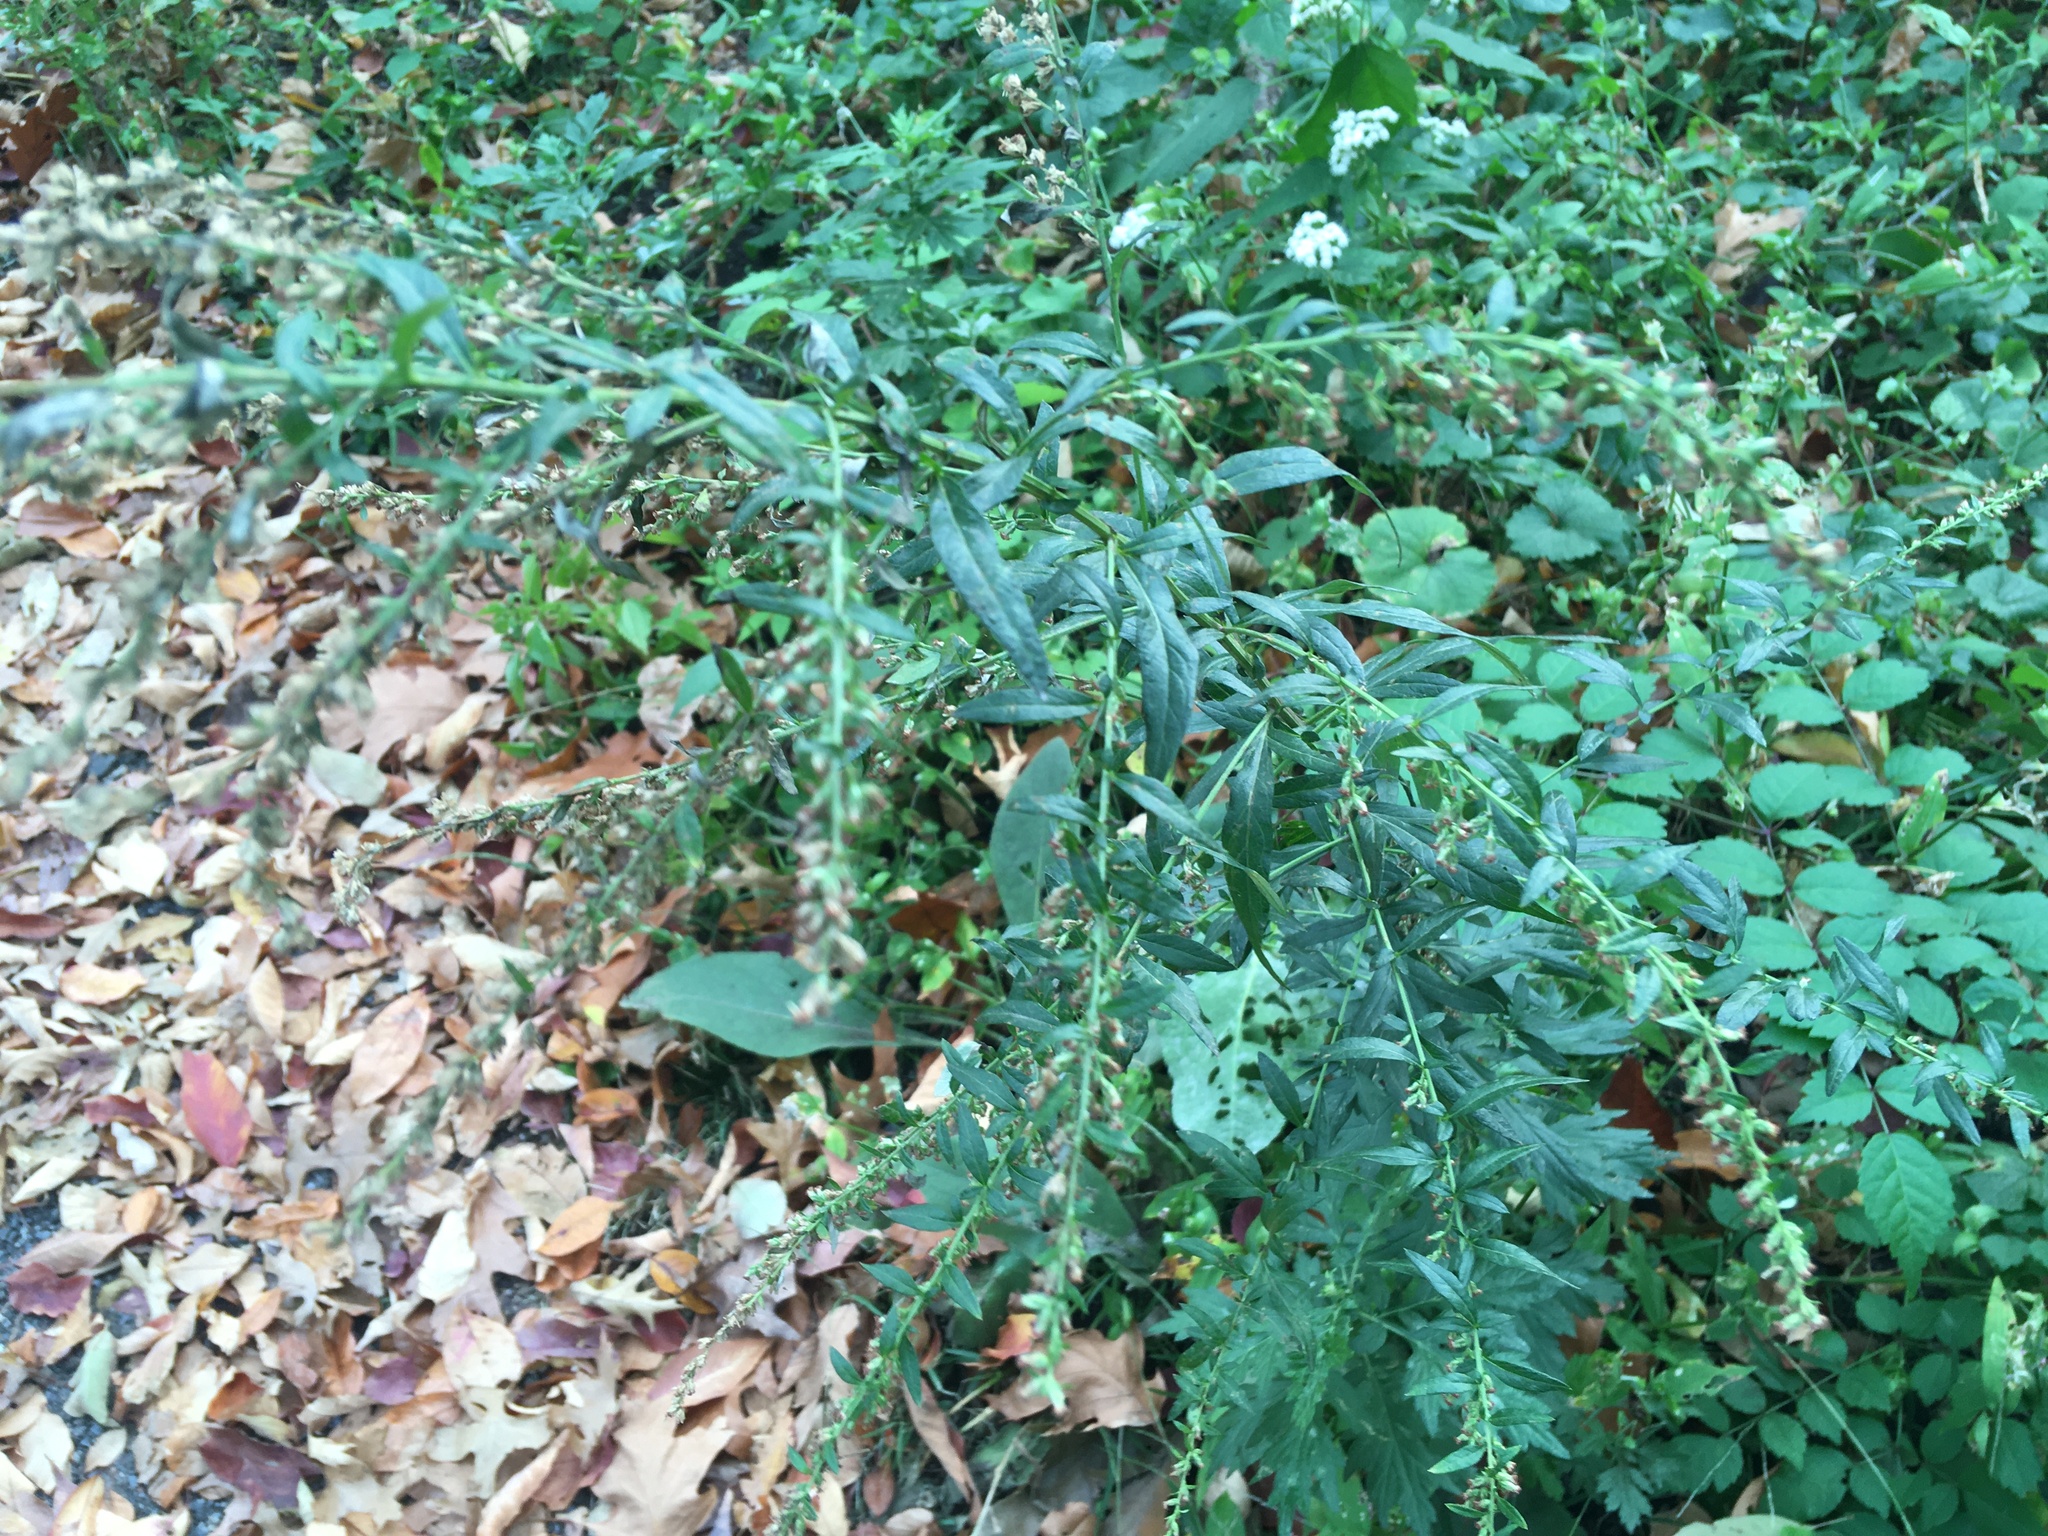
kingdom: Plantae
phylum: Tracheophyta
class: Magnoliopsida
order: Asterales
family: Asteraceae
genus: Artemisia
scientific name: Artemisia vulgaris
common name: Mugwort
